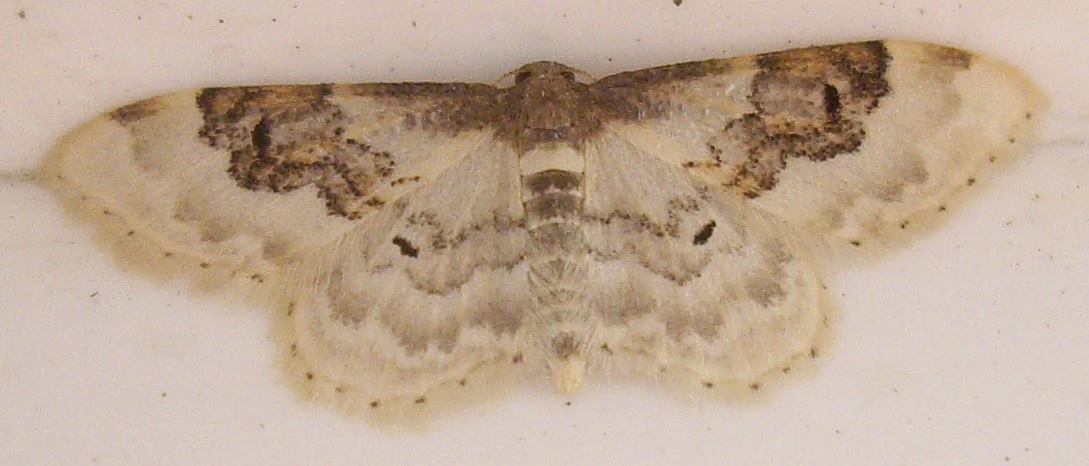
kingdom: Animalia
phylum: Arthropoda
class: Insecta
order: Lepidoptera
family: Geometridae
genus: Idaea
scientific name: Idaea rusticata
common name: Least carpet
